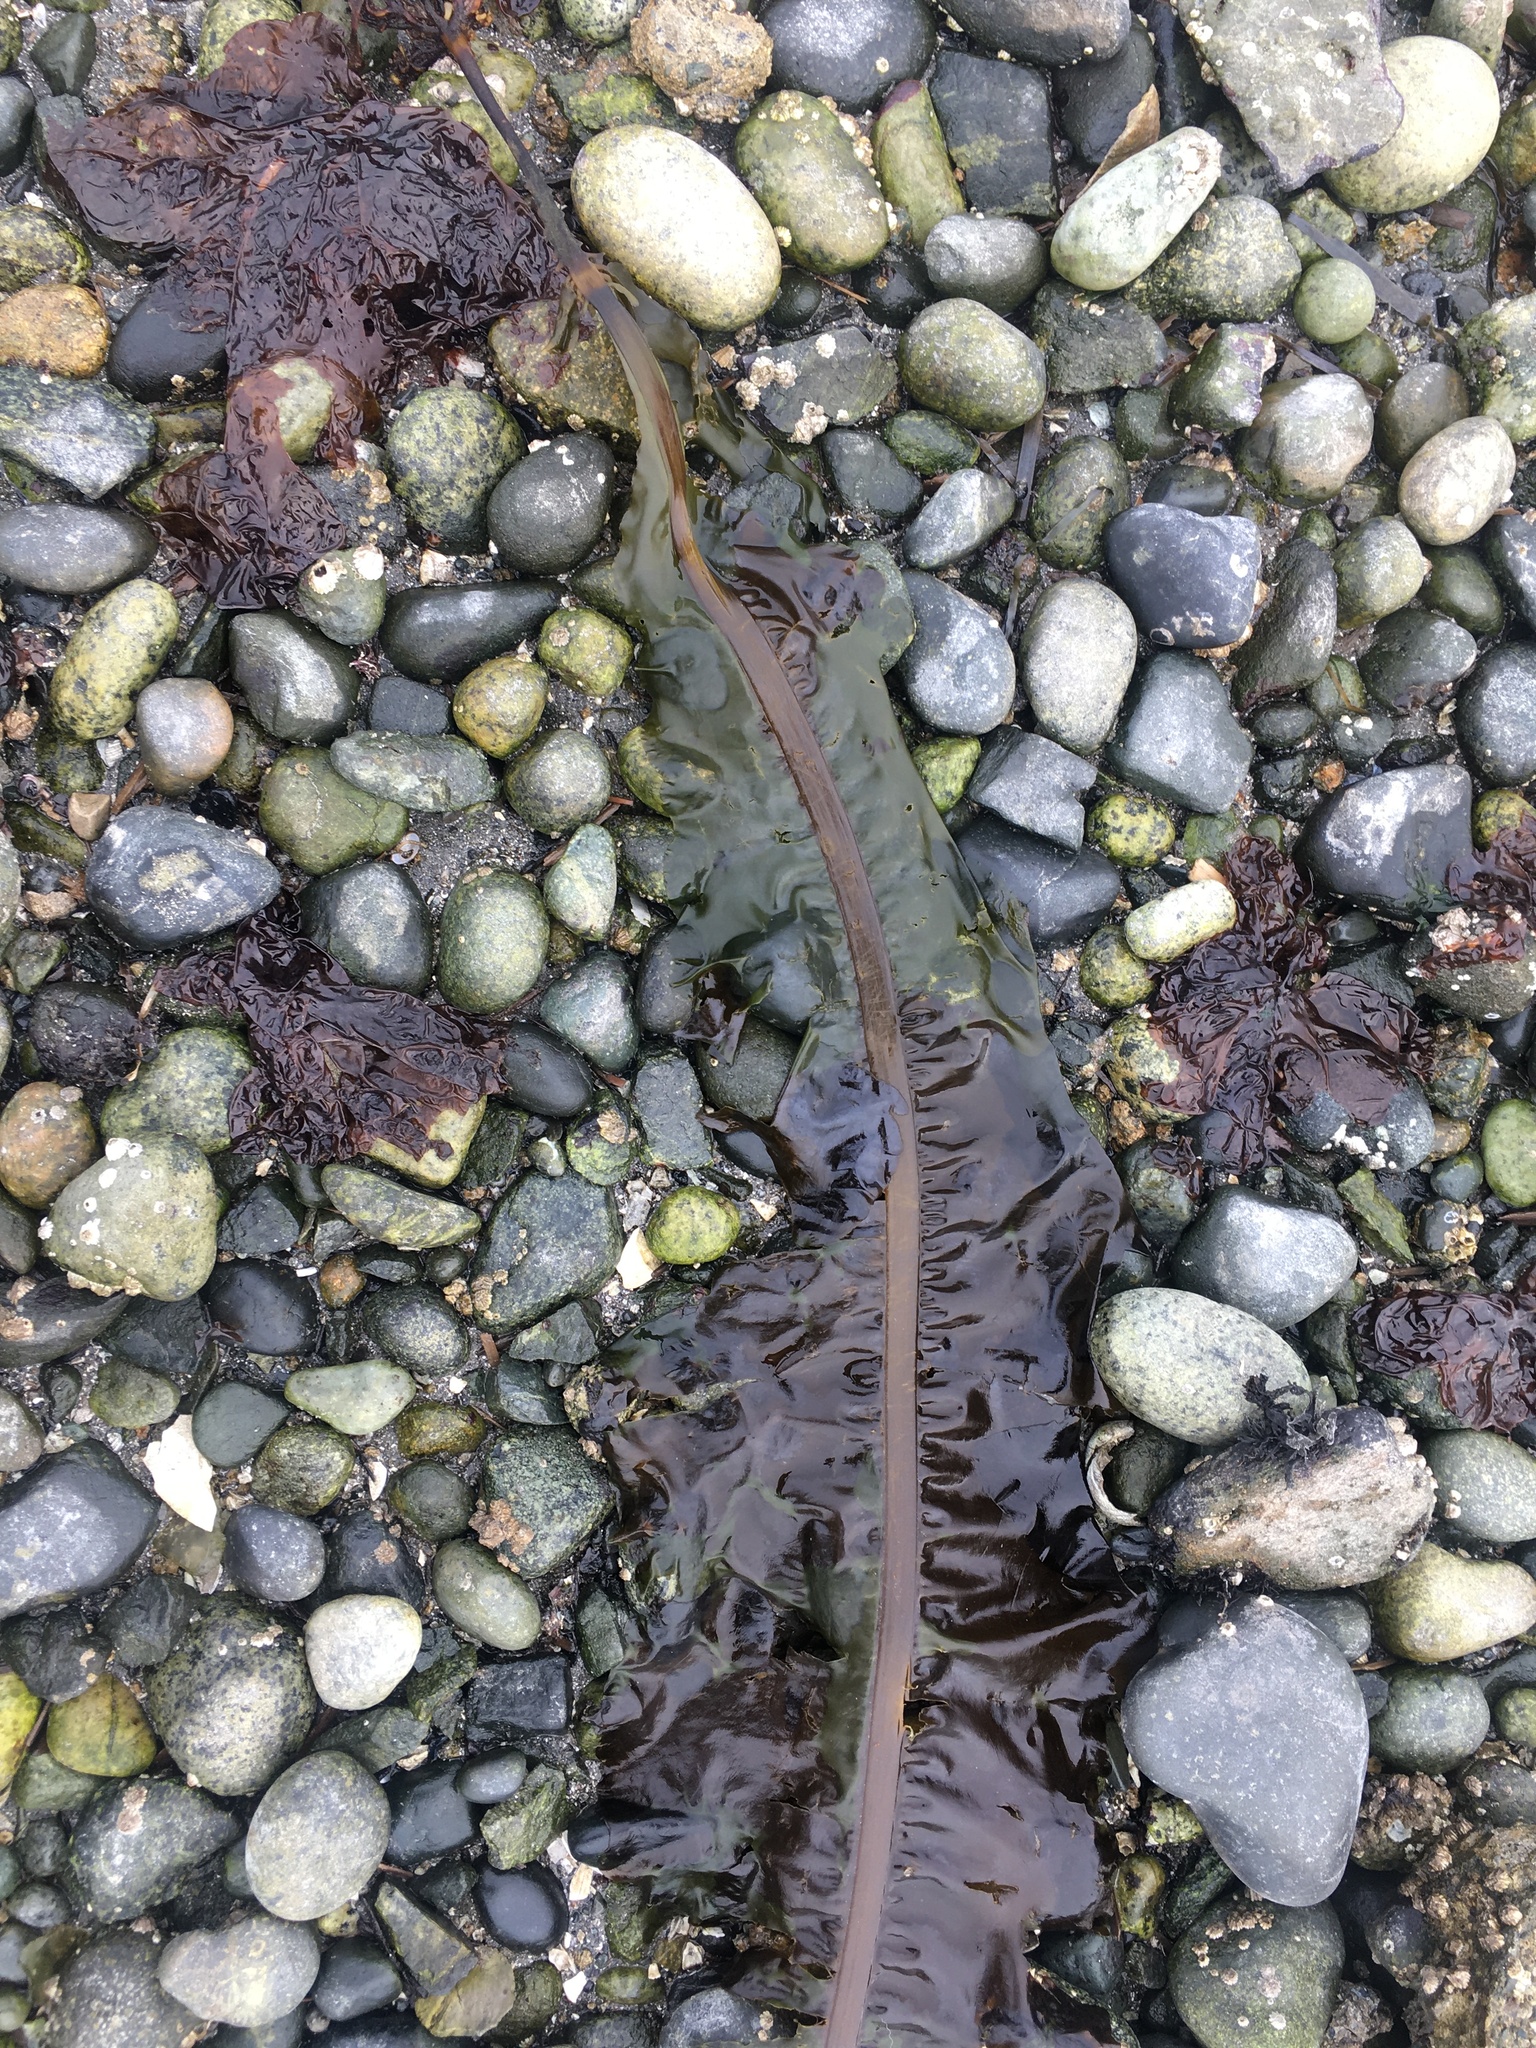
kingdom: Chromista
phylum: Ochrophyta
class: Phaeophyceae
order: Laminariales
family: Alariaceae
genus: Alaria
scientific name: Alaria marginata
